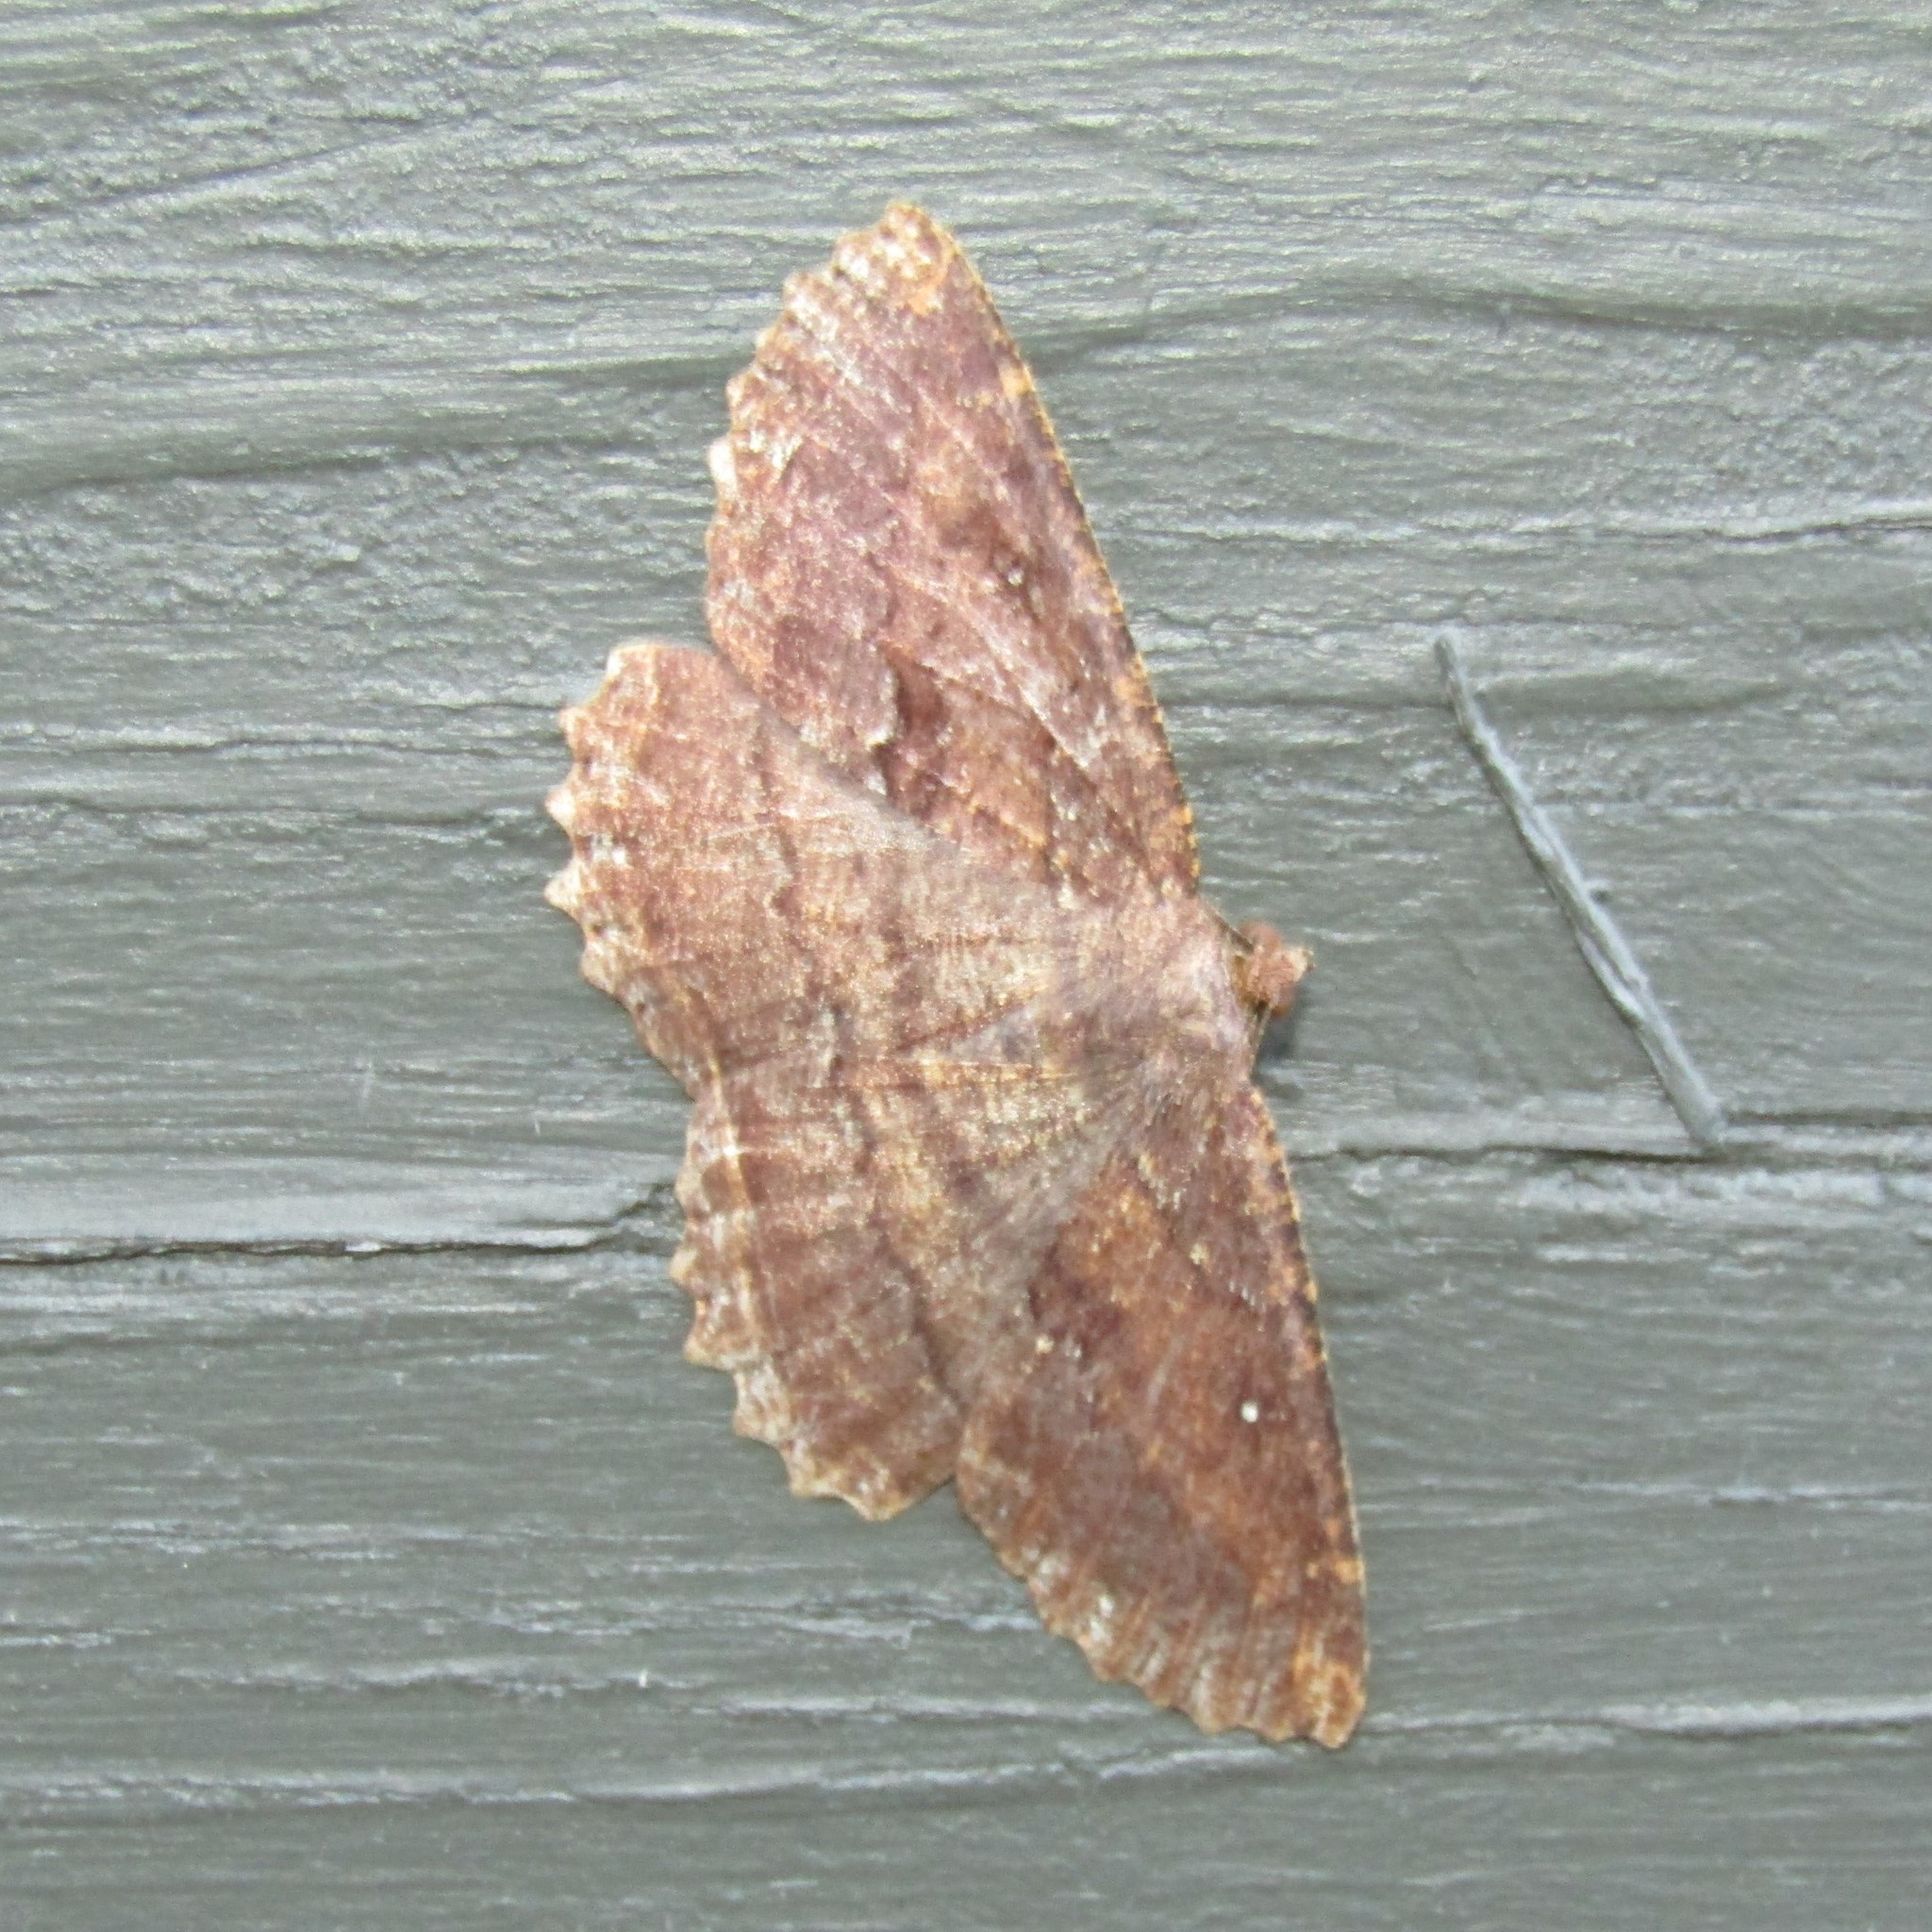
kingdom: Animalia
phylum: Arthropoda
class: Insecta
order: Lepidoptera
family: Geometridae
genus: Gellonia
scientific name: Gellonia dejectaria
